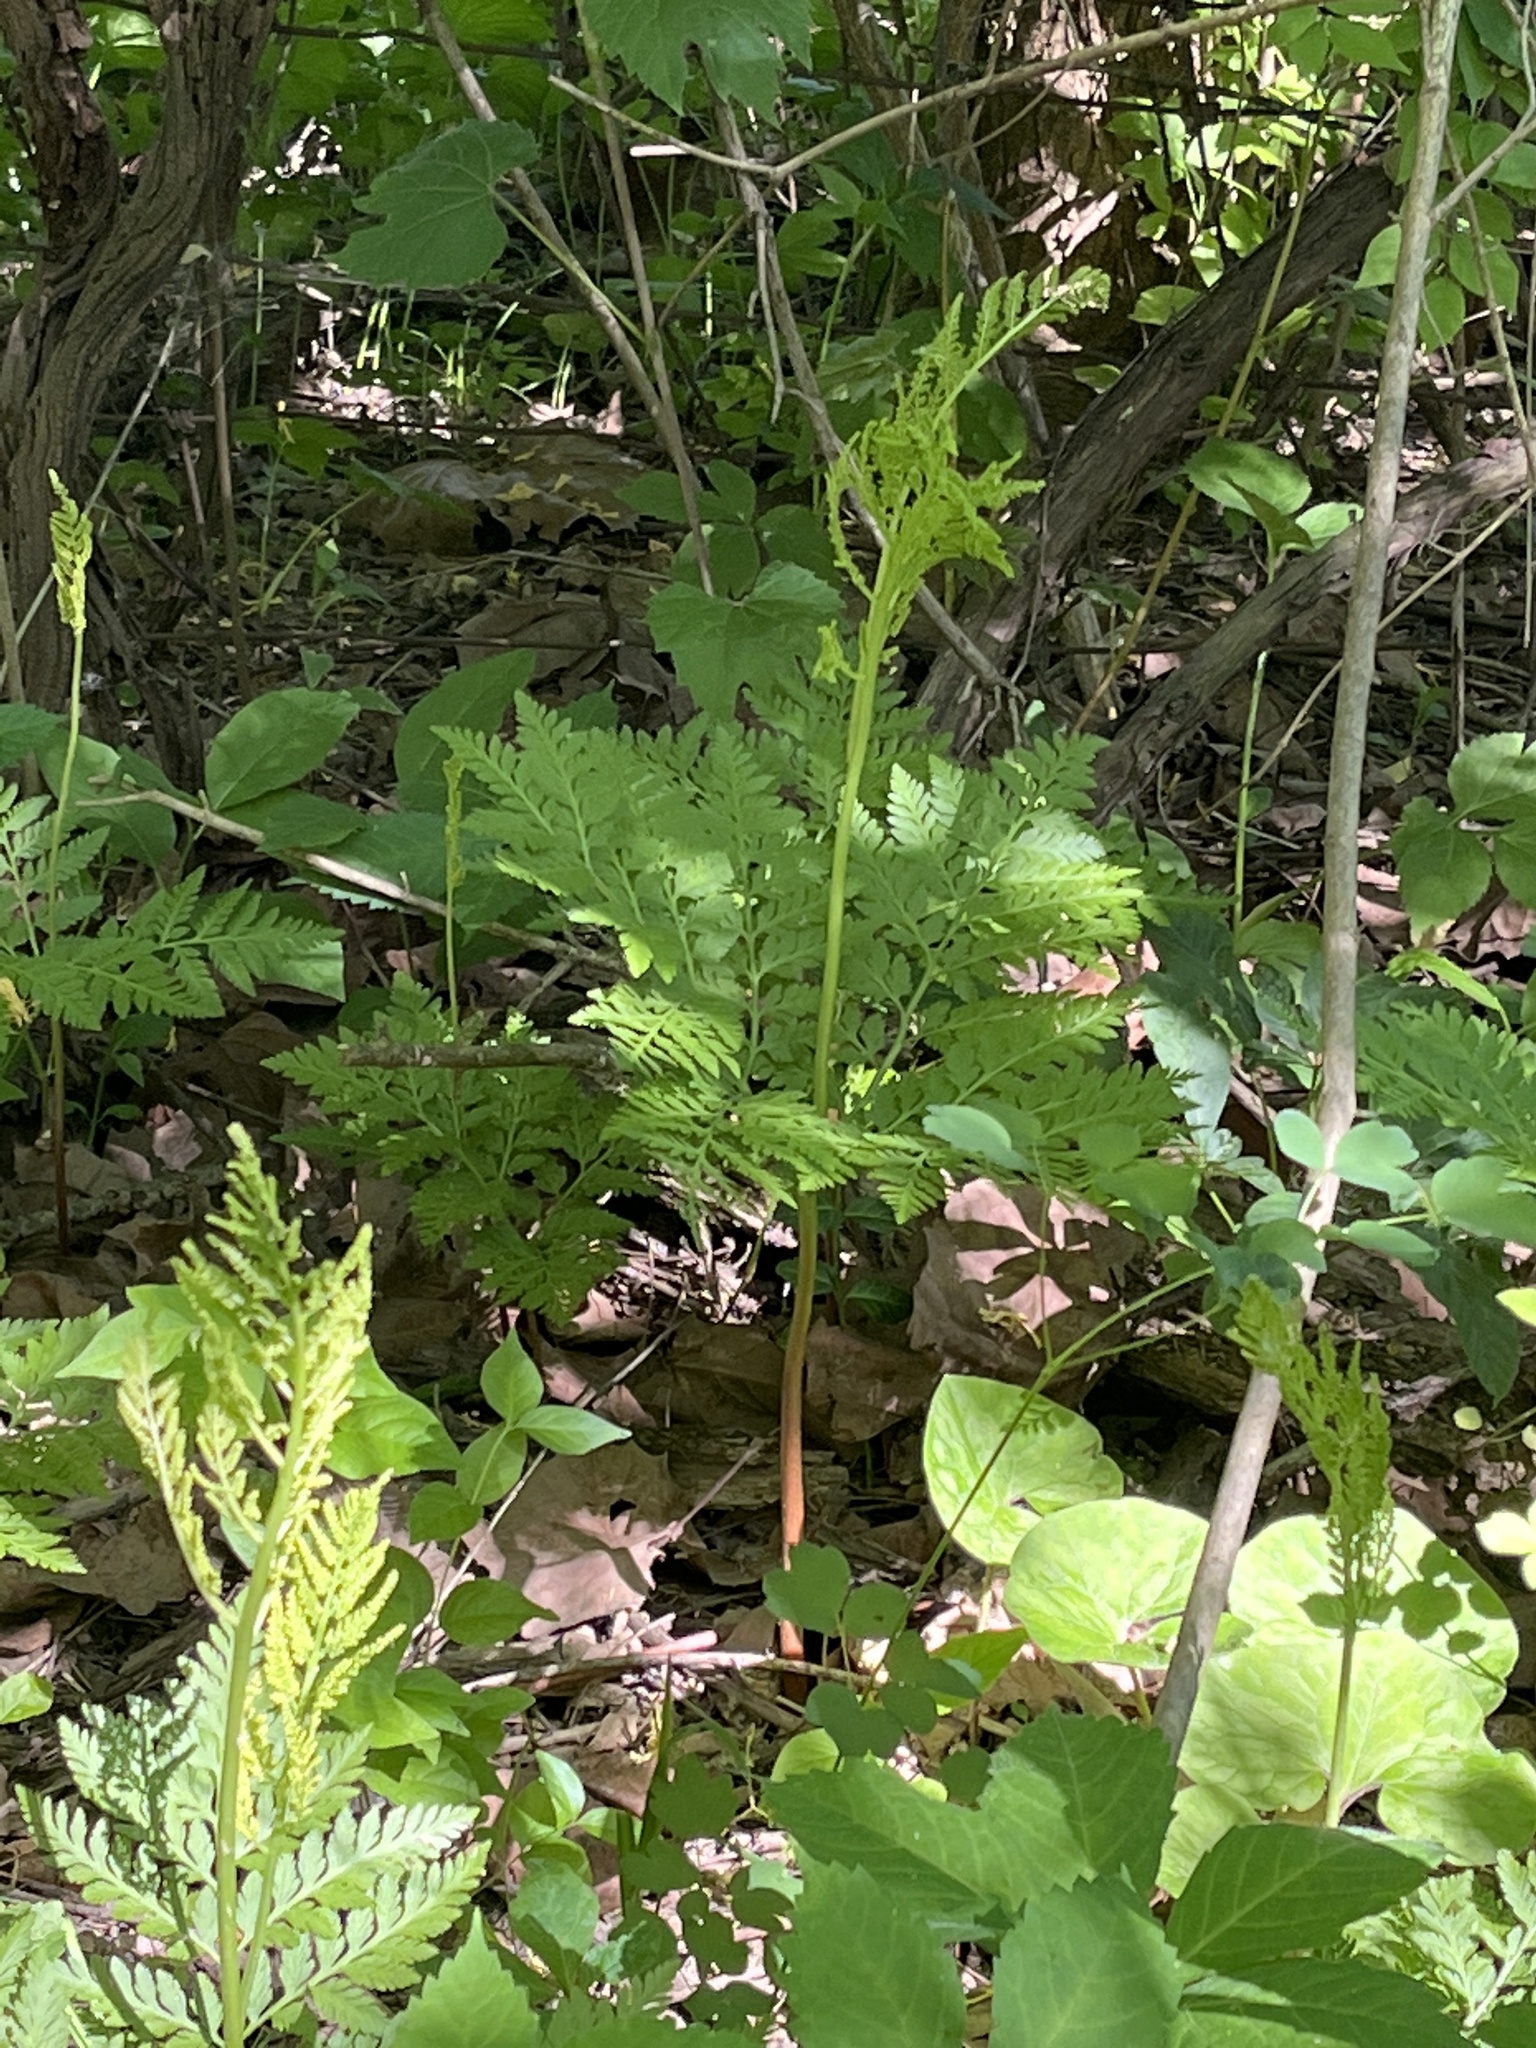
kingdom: Plantae
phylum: Tracheophyta
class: Polypodiopsida
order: Ophioglossales
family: Ophioglossaceae
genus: Botrypus
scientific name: Botrypus virginianus
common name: Common grapefern
